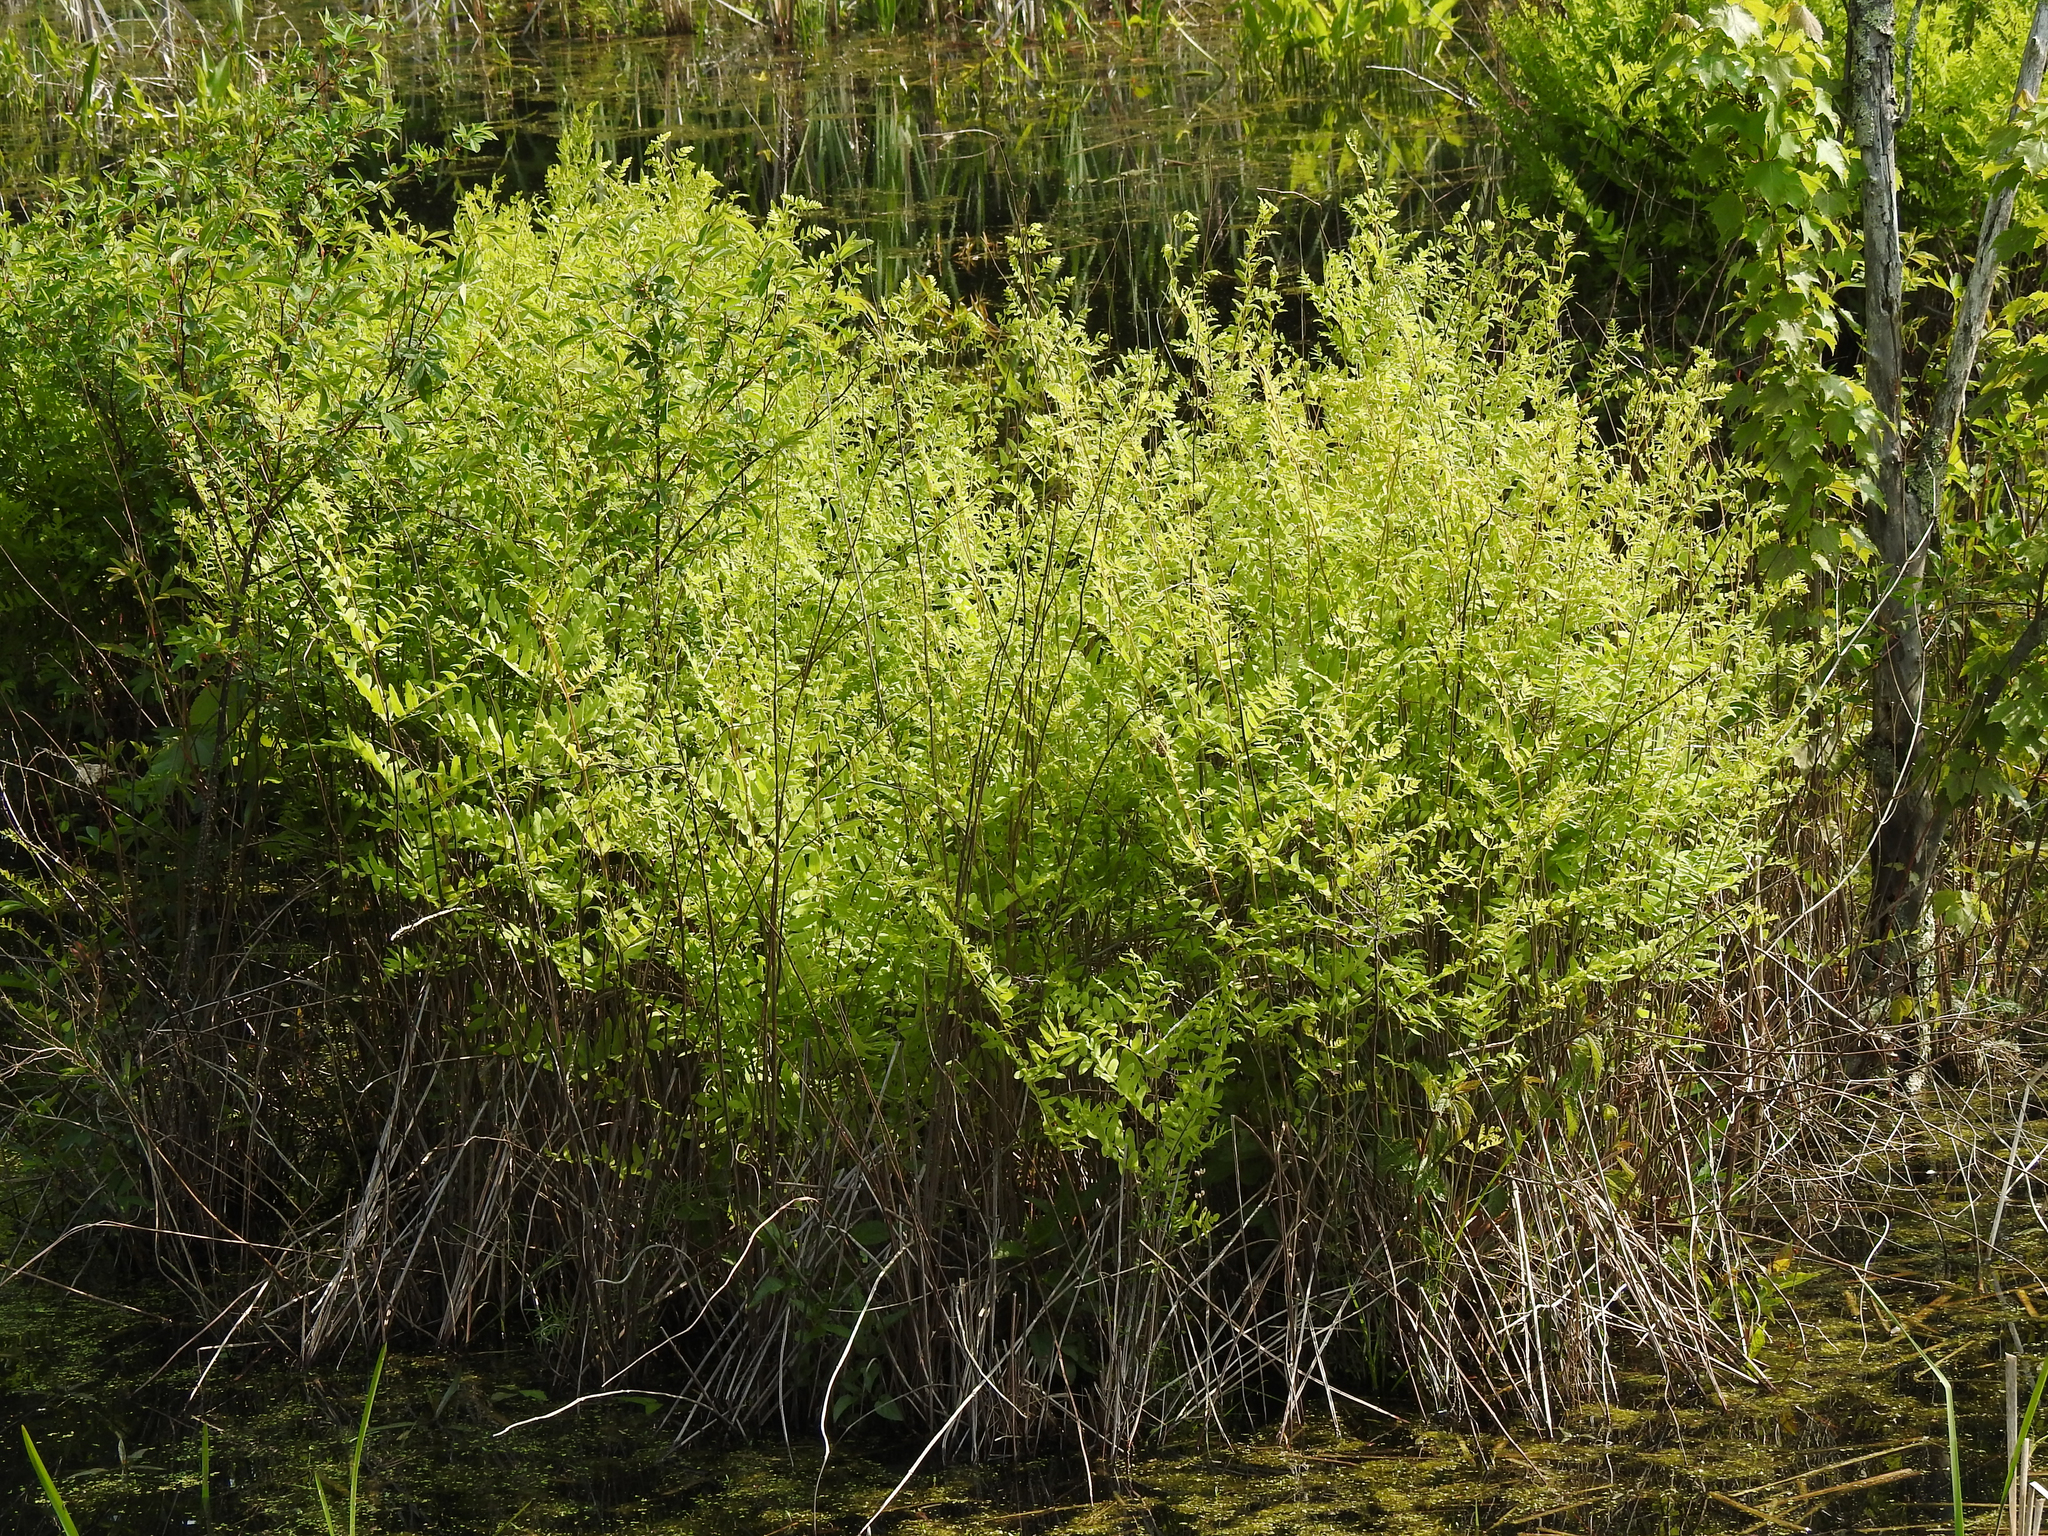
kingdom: Plantae
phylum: Tracheophyta
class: Polypodiopsida
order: Osmundales
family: Osmundaceae
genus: Osmunda
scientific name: Osmunda spectabilis
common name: American royal fern
